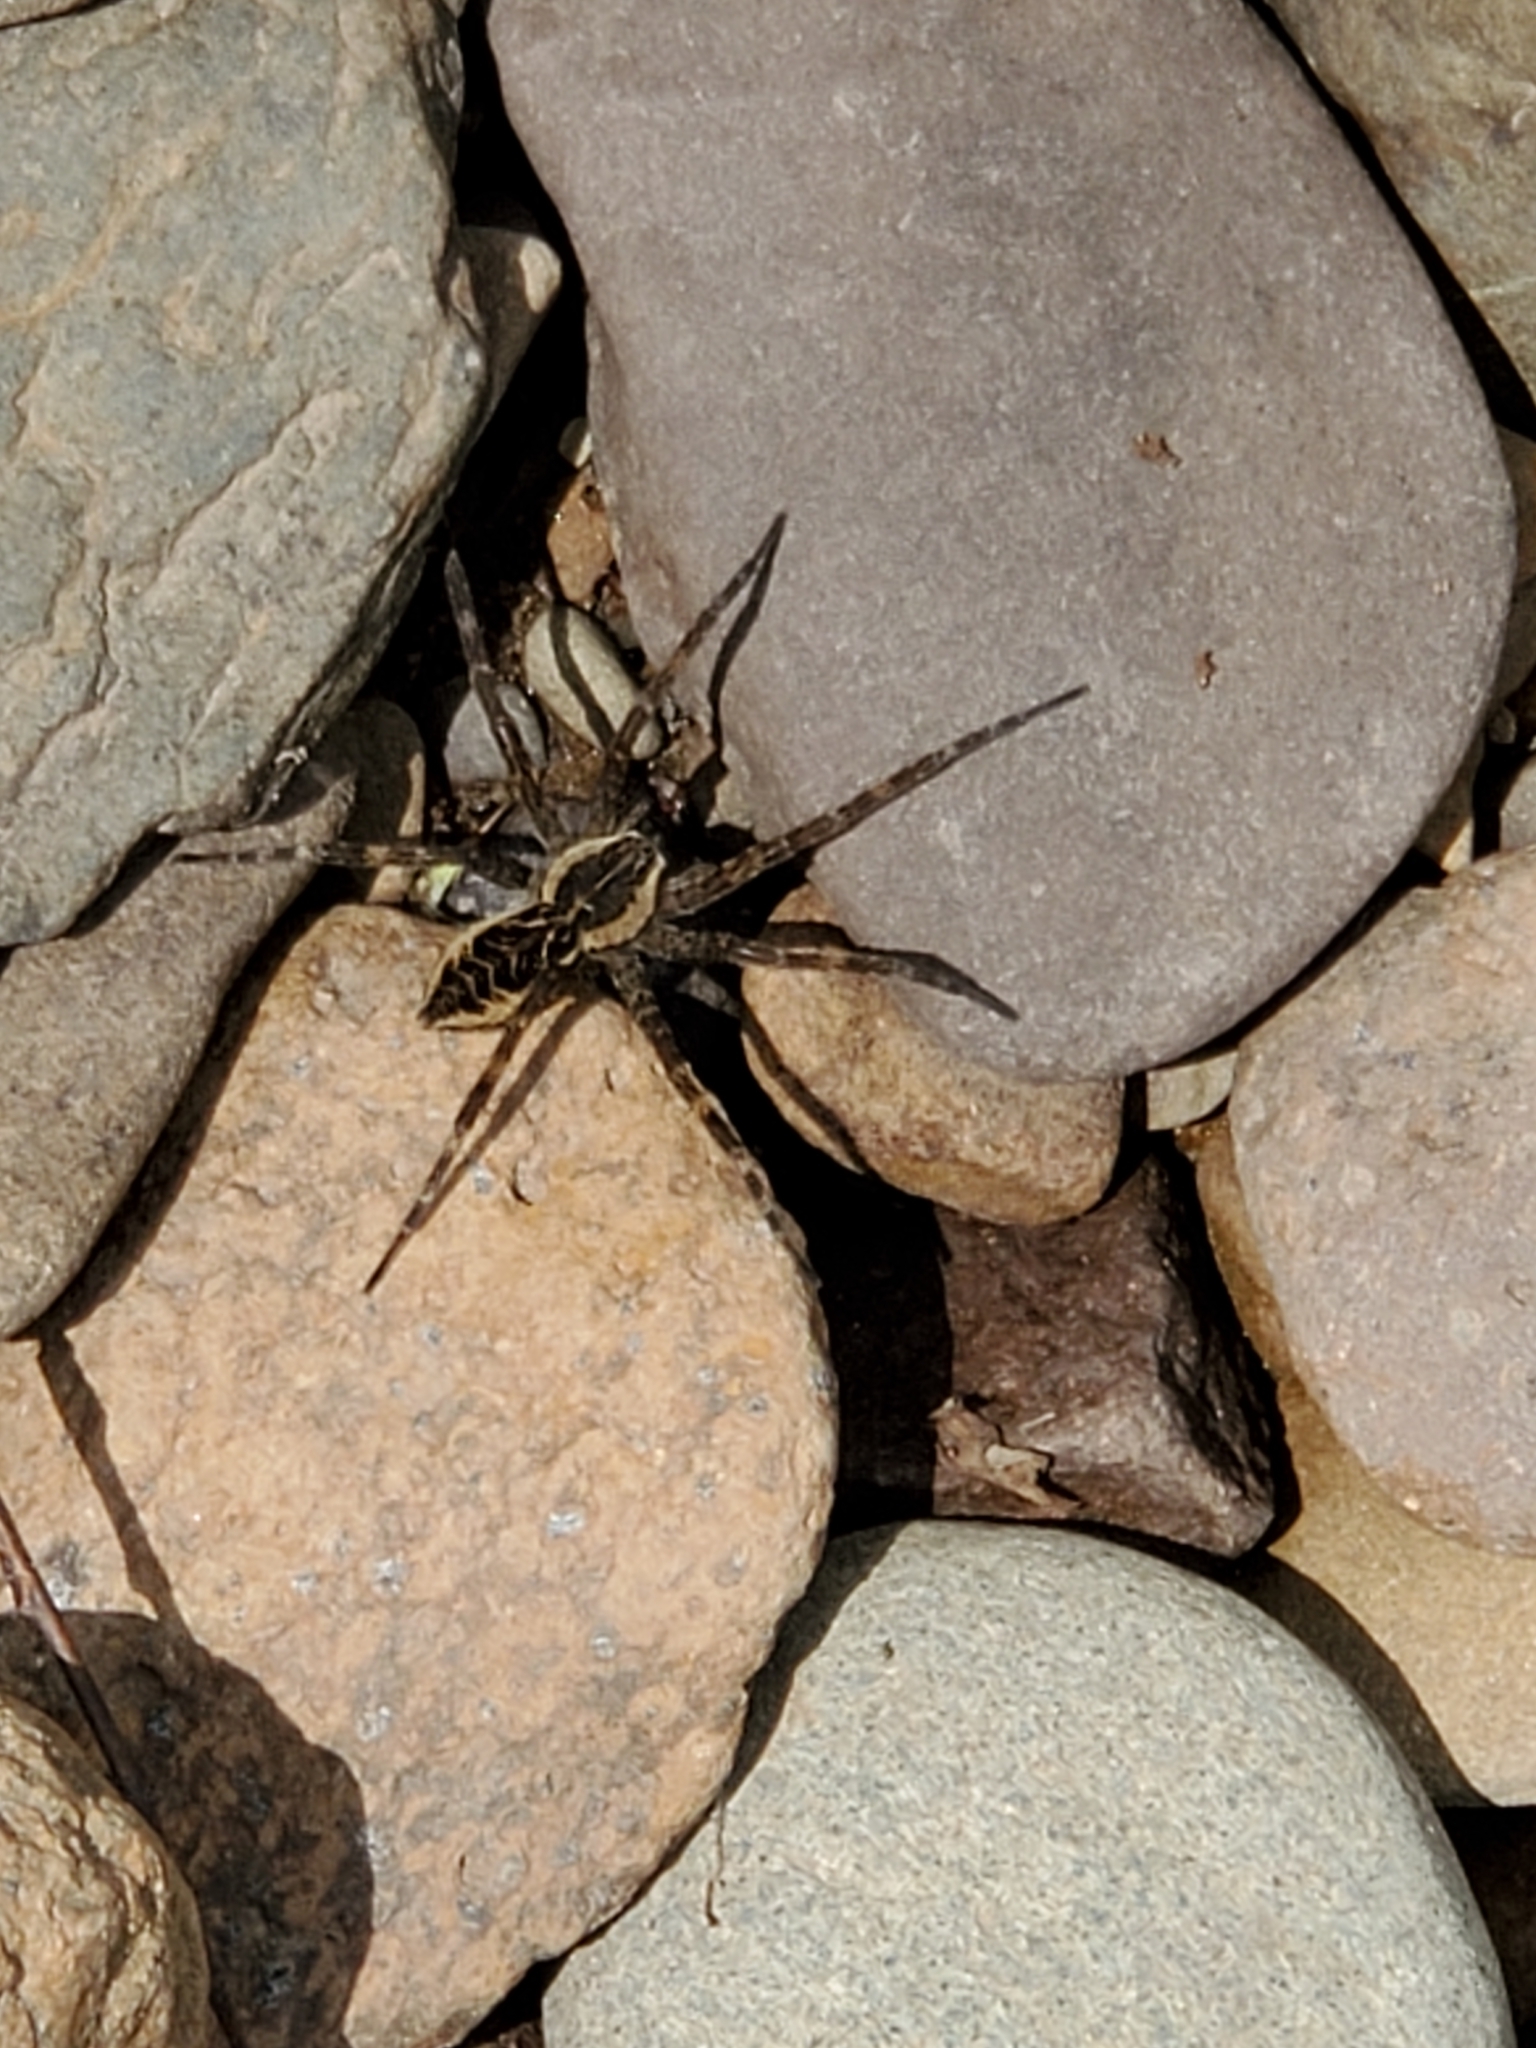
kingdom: Animalia
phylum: Arthropoda
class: Arachnida
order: Araneae
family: Pisauridae
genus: Dolomedes
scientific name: Dolomedes scriptus
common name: Striped fishing spider
